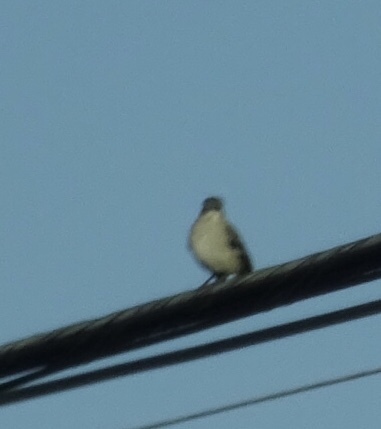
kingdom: Animalia
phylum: Chordata
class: Aves
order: Passeriformes
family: Mimidae
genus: Mimus
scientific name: Mimus polyglottos
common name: Northern mockingbird
